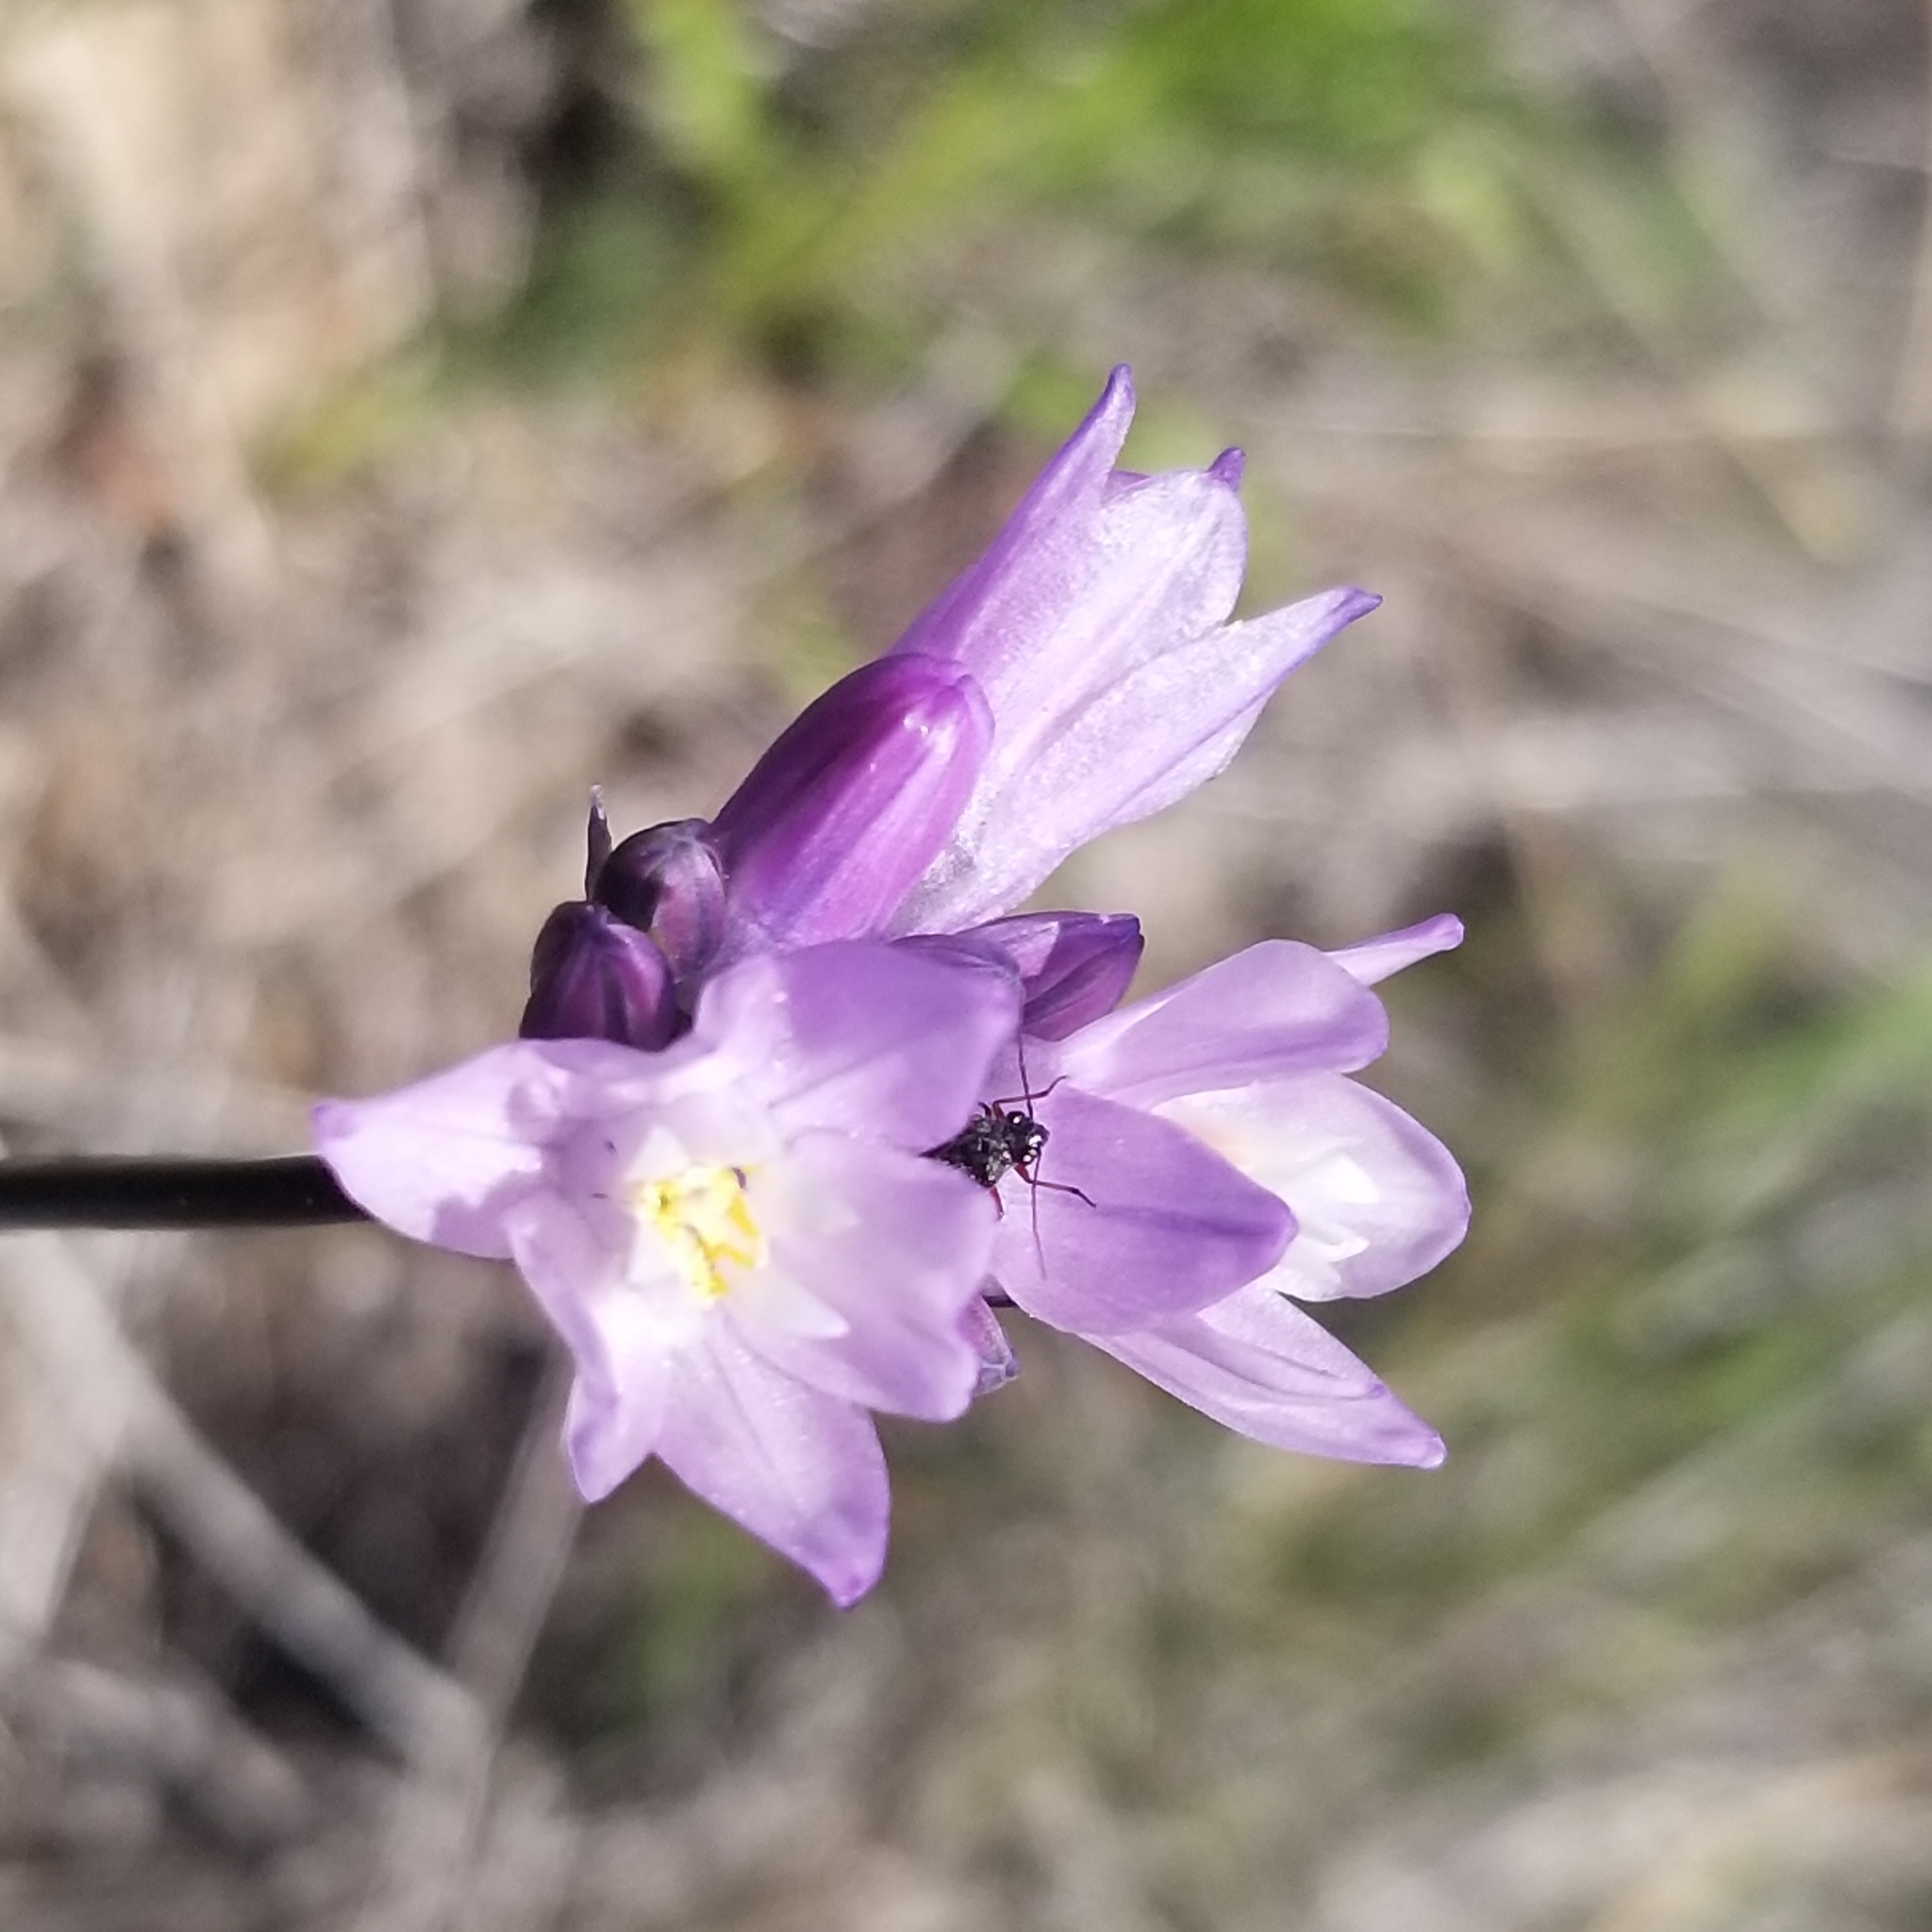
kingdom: Plantae
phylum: Tracheophyta
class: Liliopsida
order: Asparagales
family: Asparagaceae
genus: Dipterostemon
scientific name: Dipterostemon capitatus
